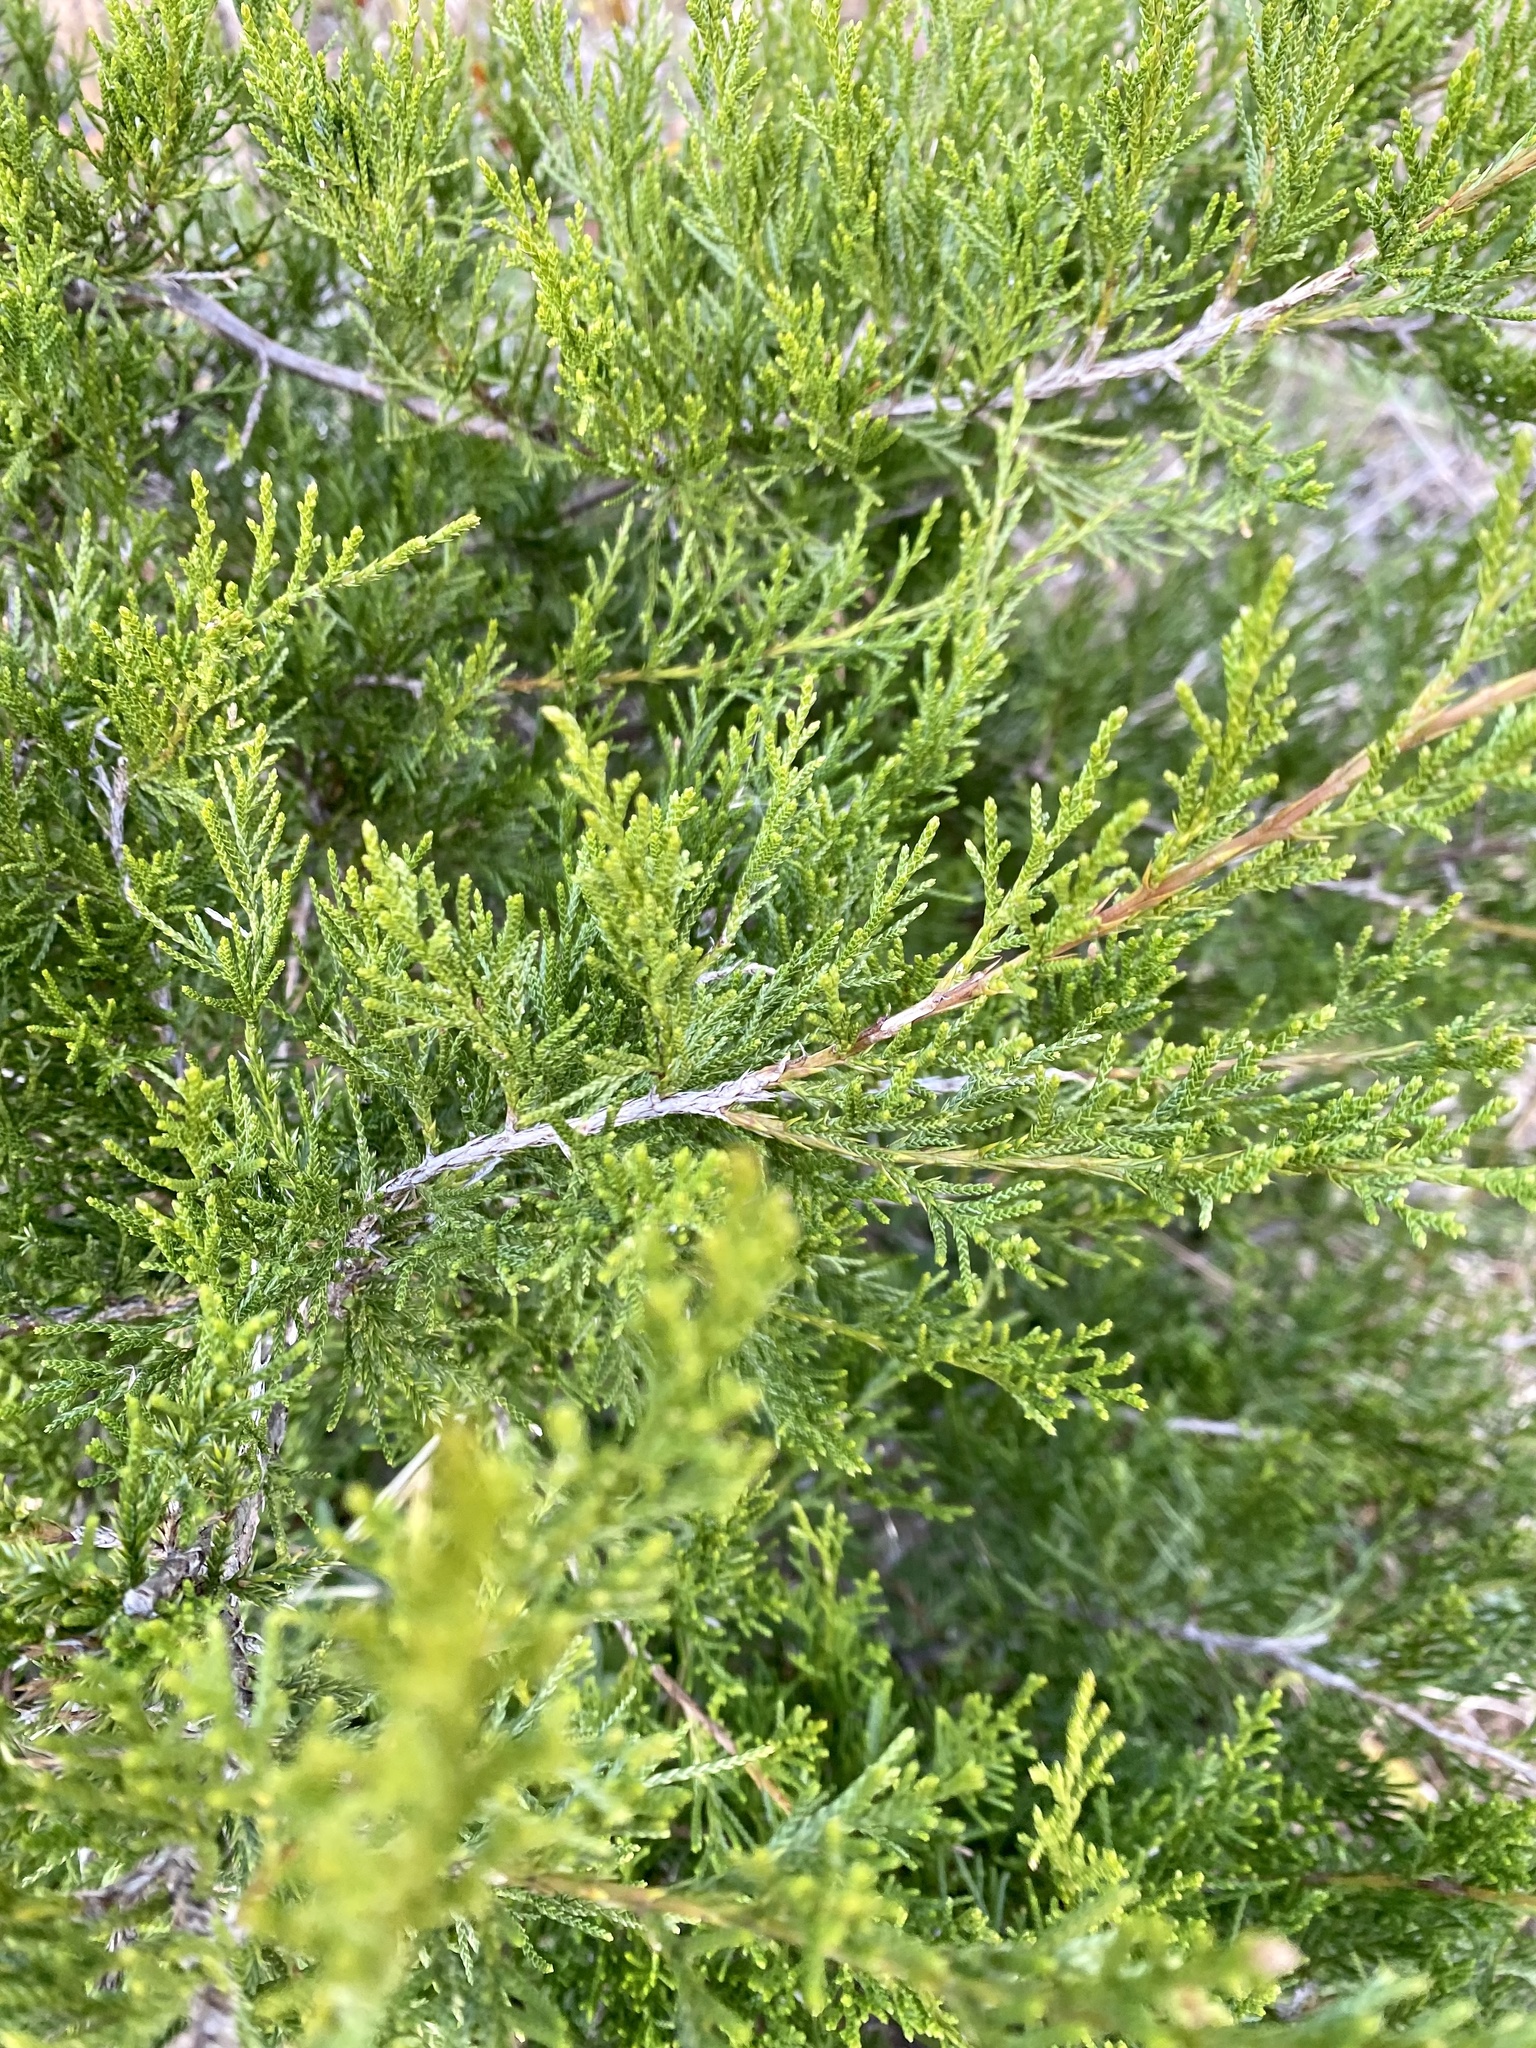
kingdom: Plantae
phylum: Tracheophyta
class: Pinopsida
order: Pinales
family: Cupressaceae
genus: Juniperus
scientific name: Juniperus virginiana
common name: Red juniper
